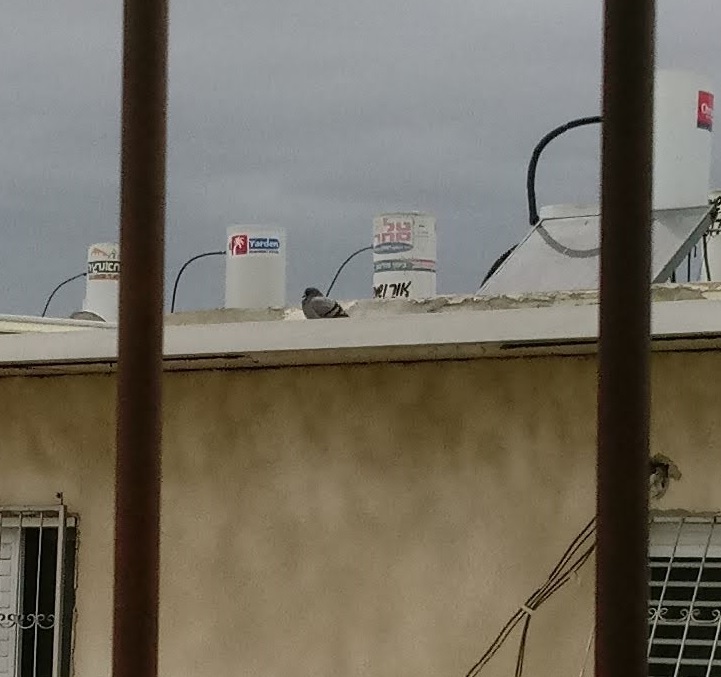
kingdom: Animalia
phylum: Chordata
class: Aves
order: Columbiformes
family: Columbidae
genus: Columba
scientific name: Columba livia
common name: Rock pigeon
